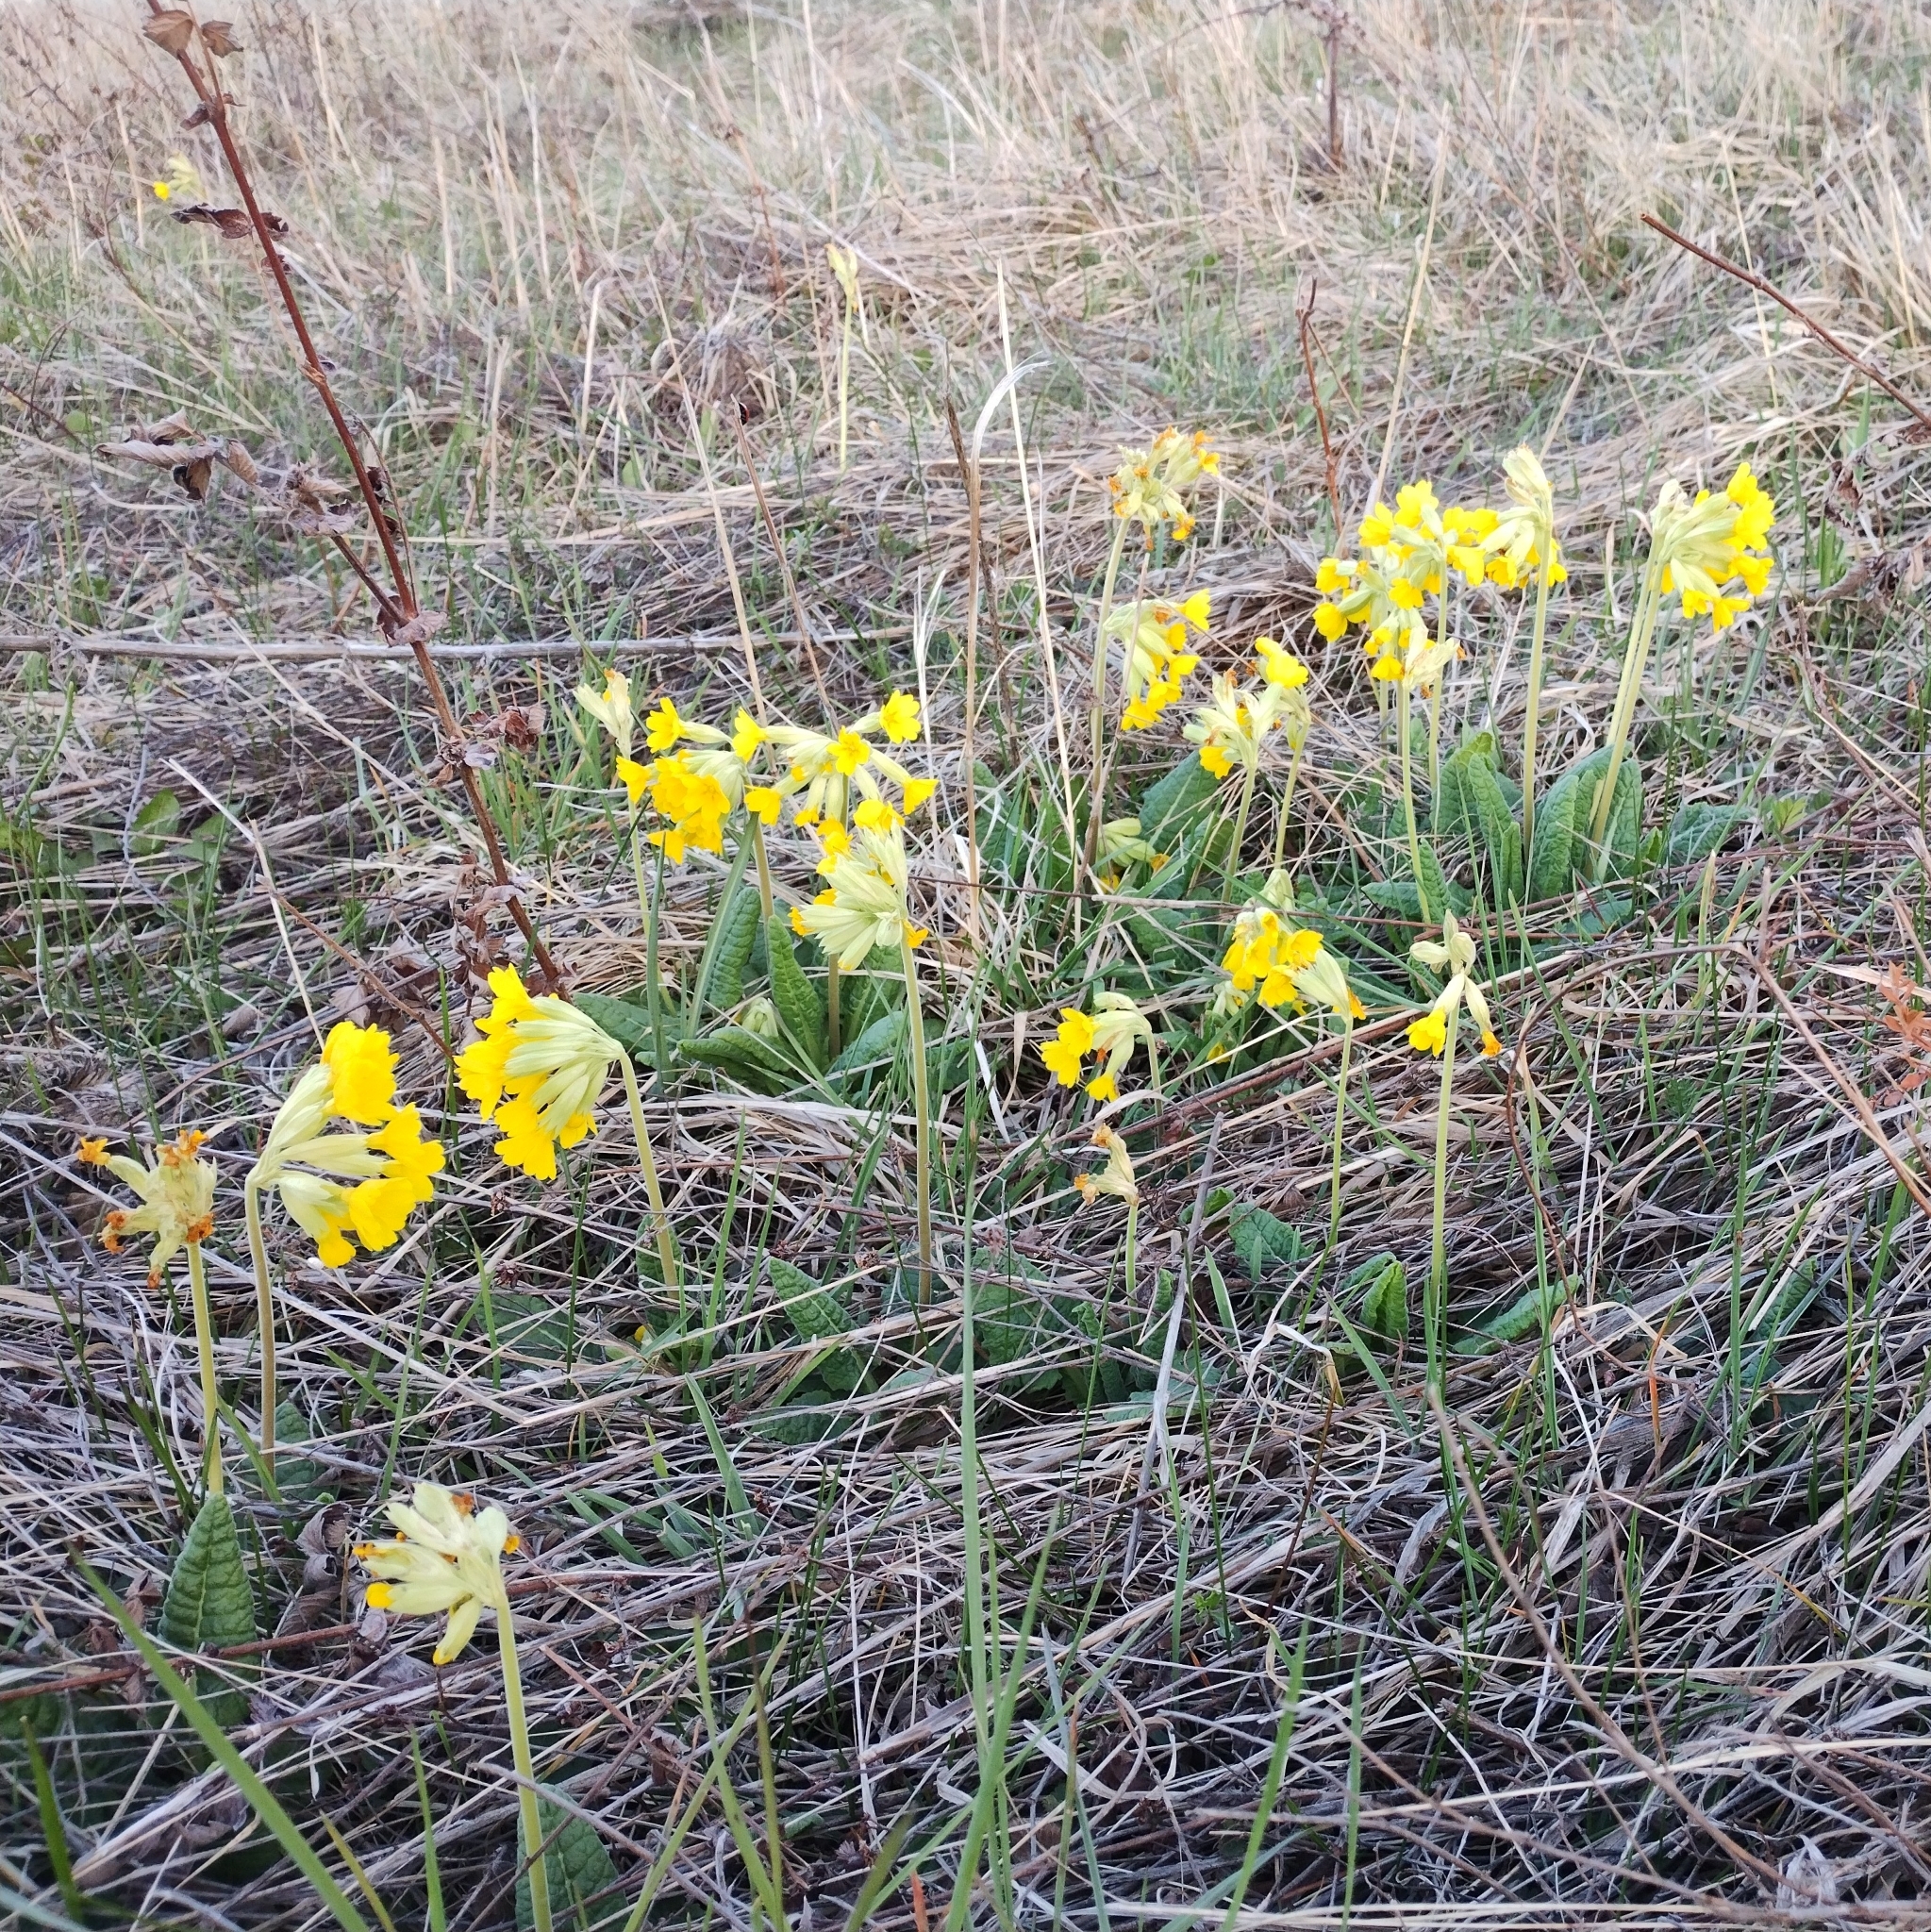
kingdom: Plantae
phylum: Tracheophyta
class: Magnoliopsida
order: Ericales
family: Primulaceae
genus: Primula
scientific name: Primula veris
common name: Cowslip
